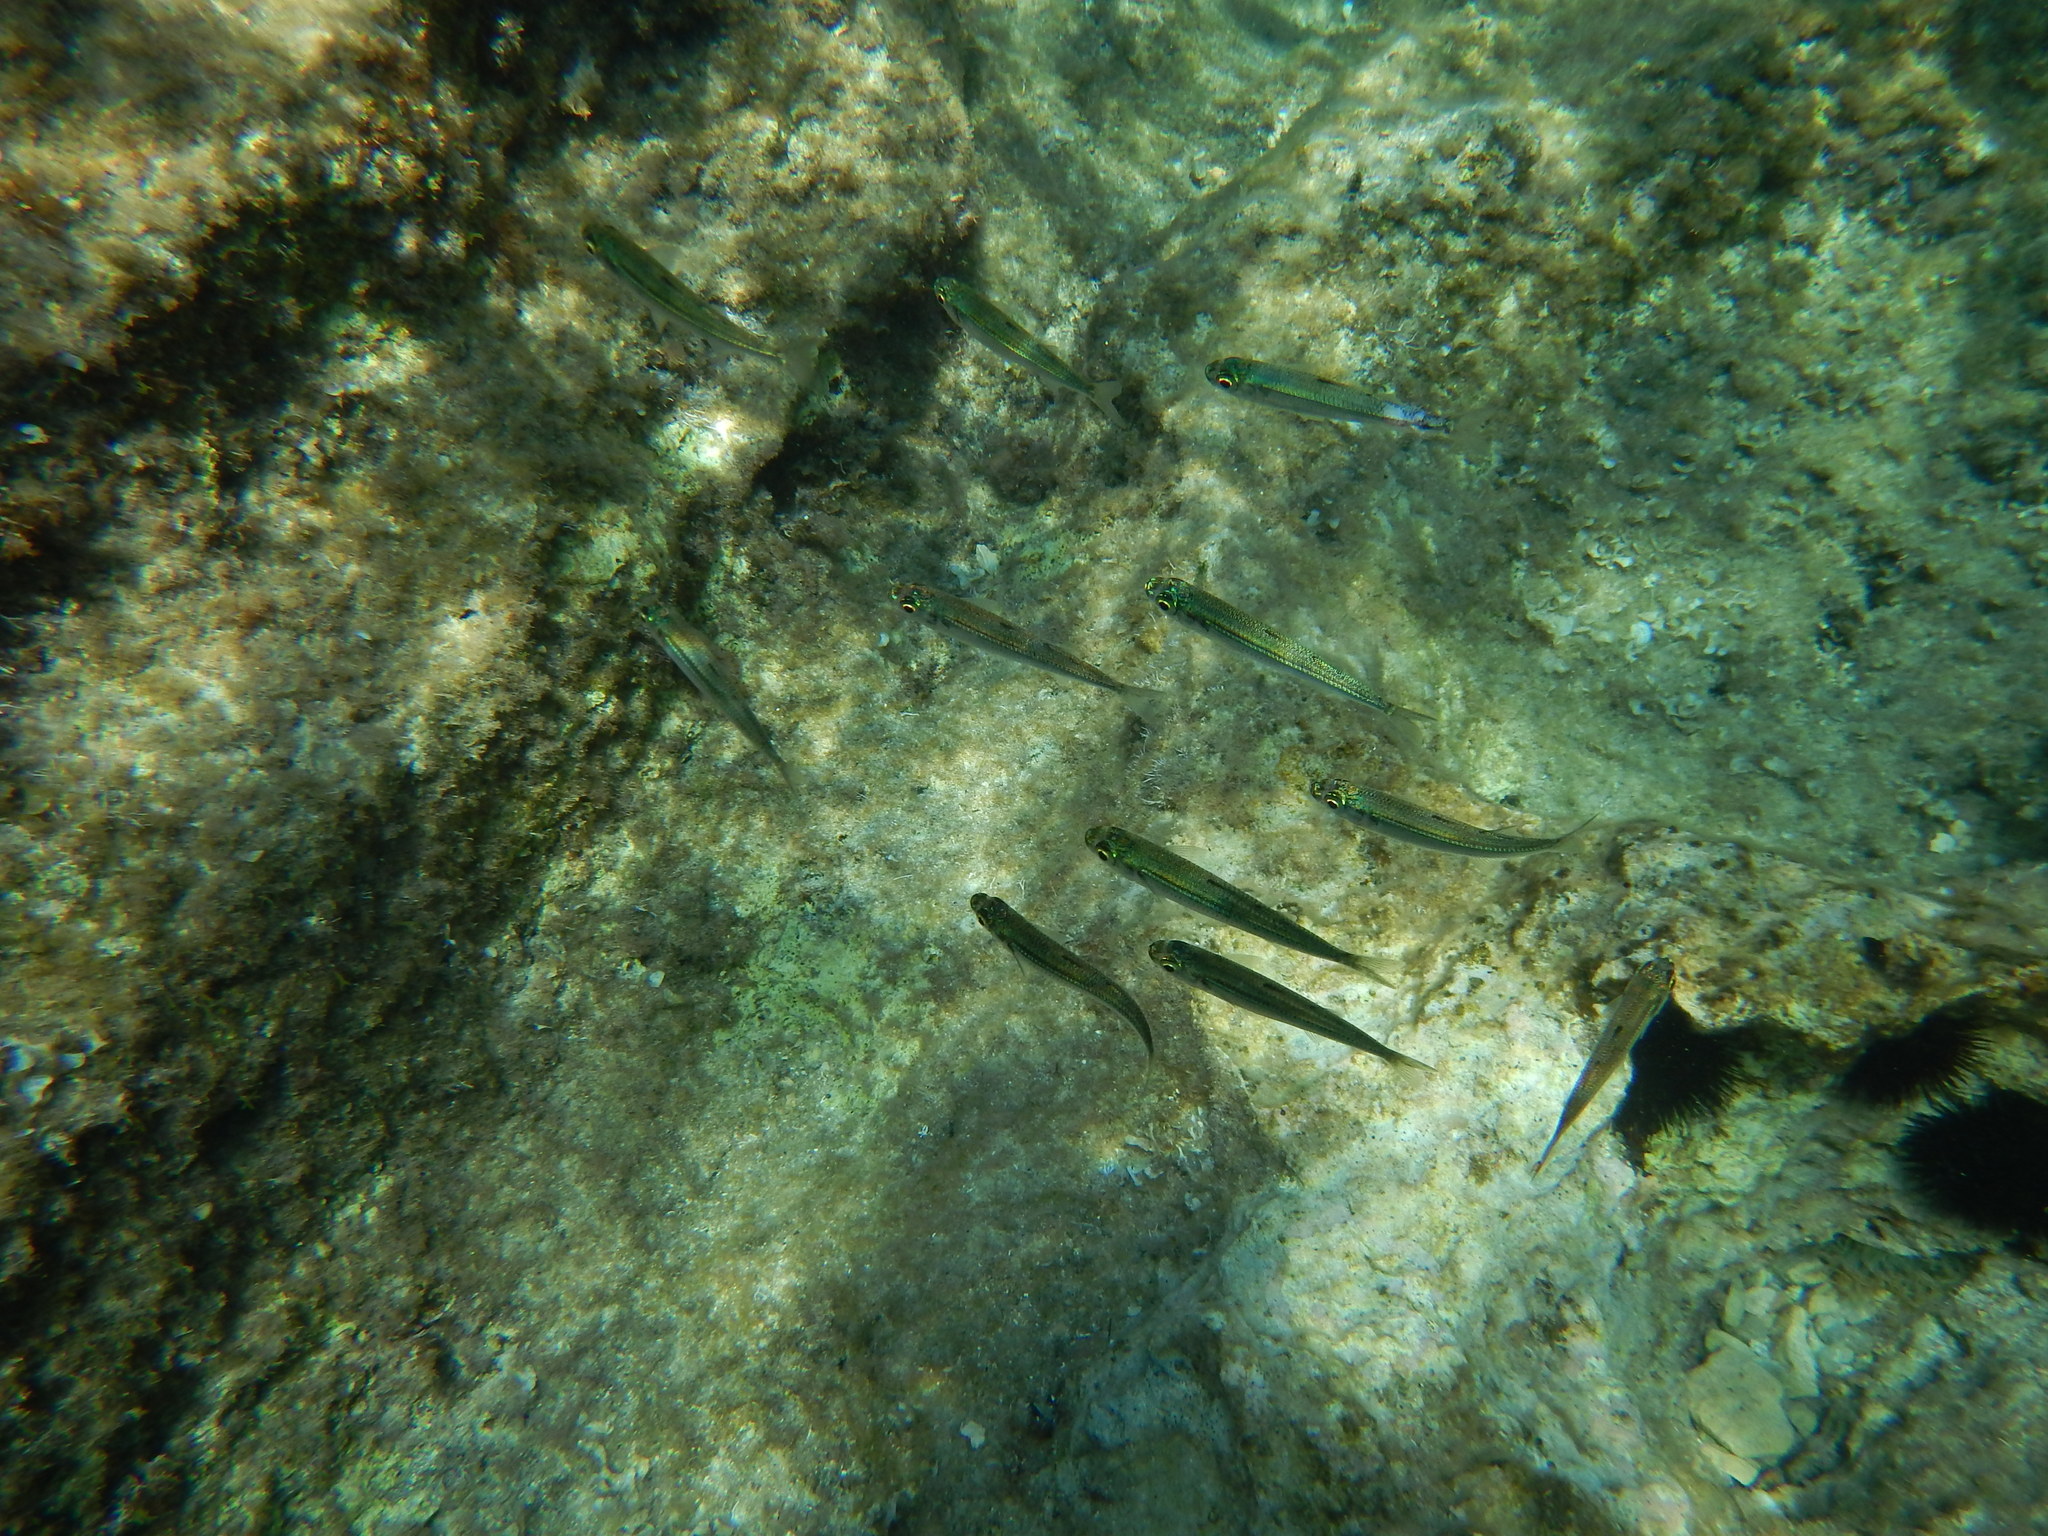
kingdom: Animalia
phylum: Chordata
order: Atheriniformes
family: Atherinidae
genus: Atherina
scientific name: Atherina boyeri
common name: Big-scale sand smelt
